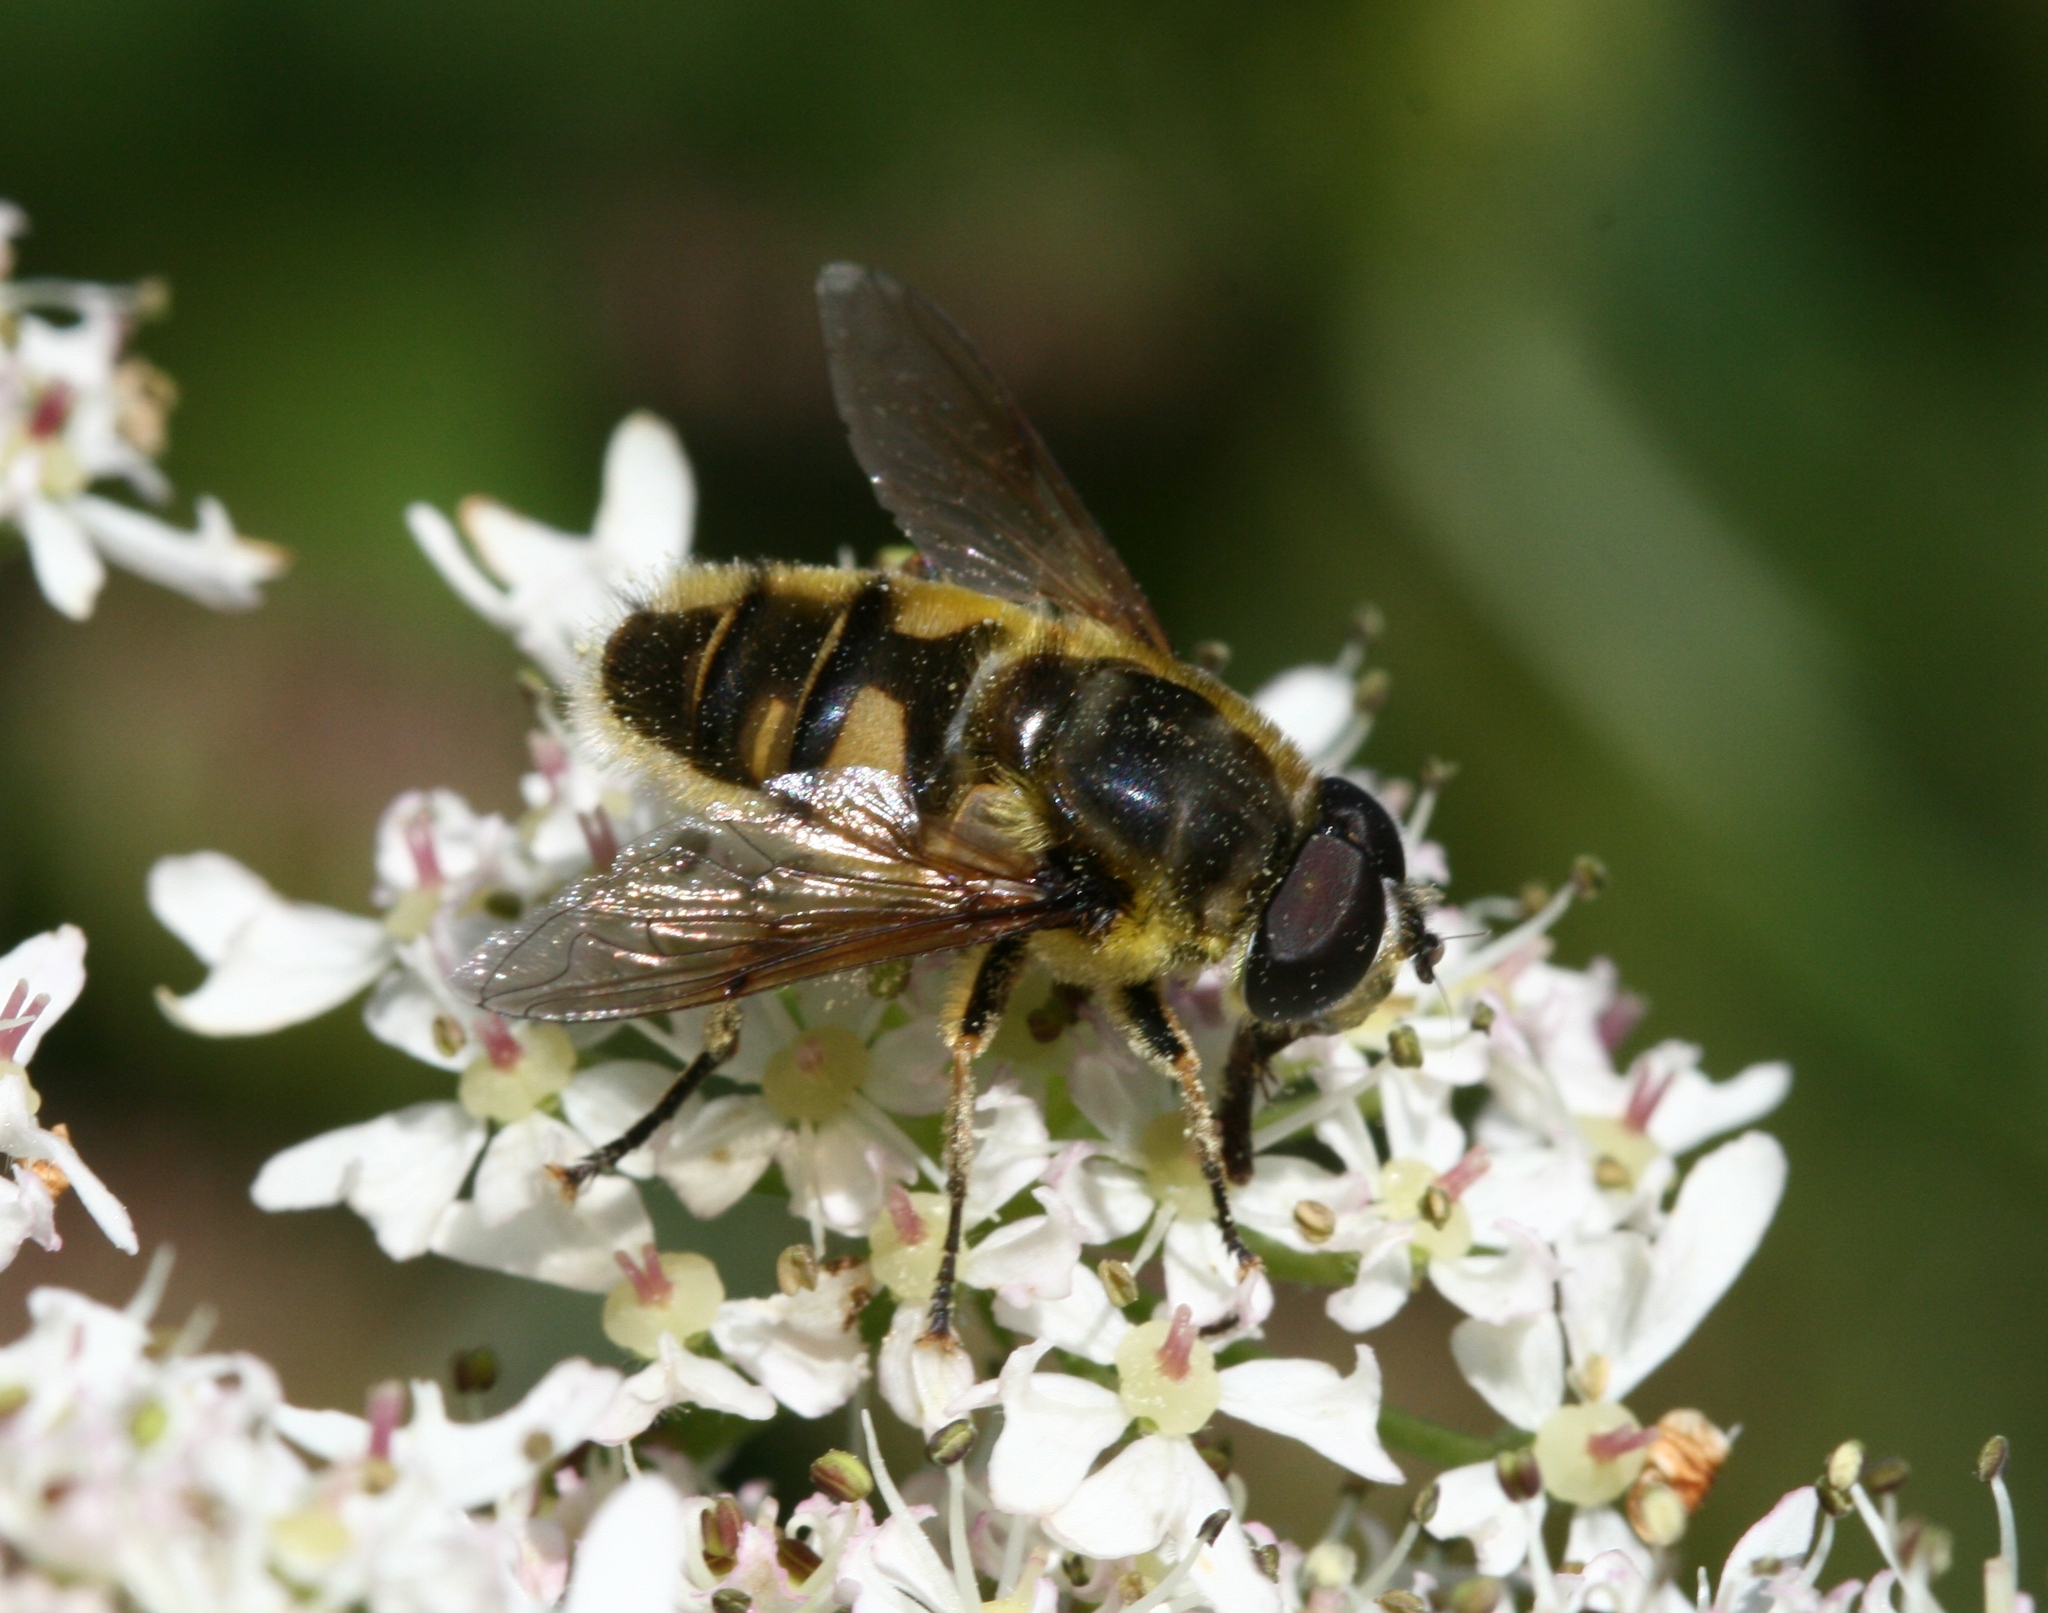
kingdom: Animalia
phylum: Arthropoda
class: Insecta
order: Diptera
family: Syrphidae
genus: Myathropa
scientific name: Myathropa florea
